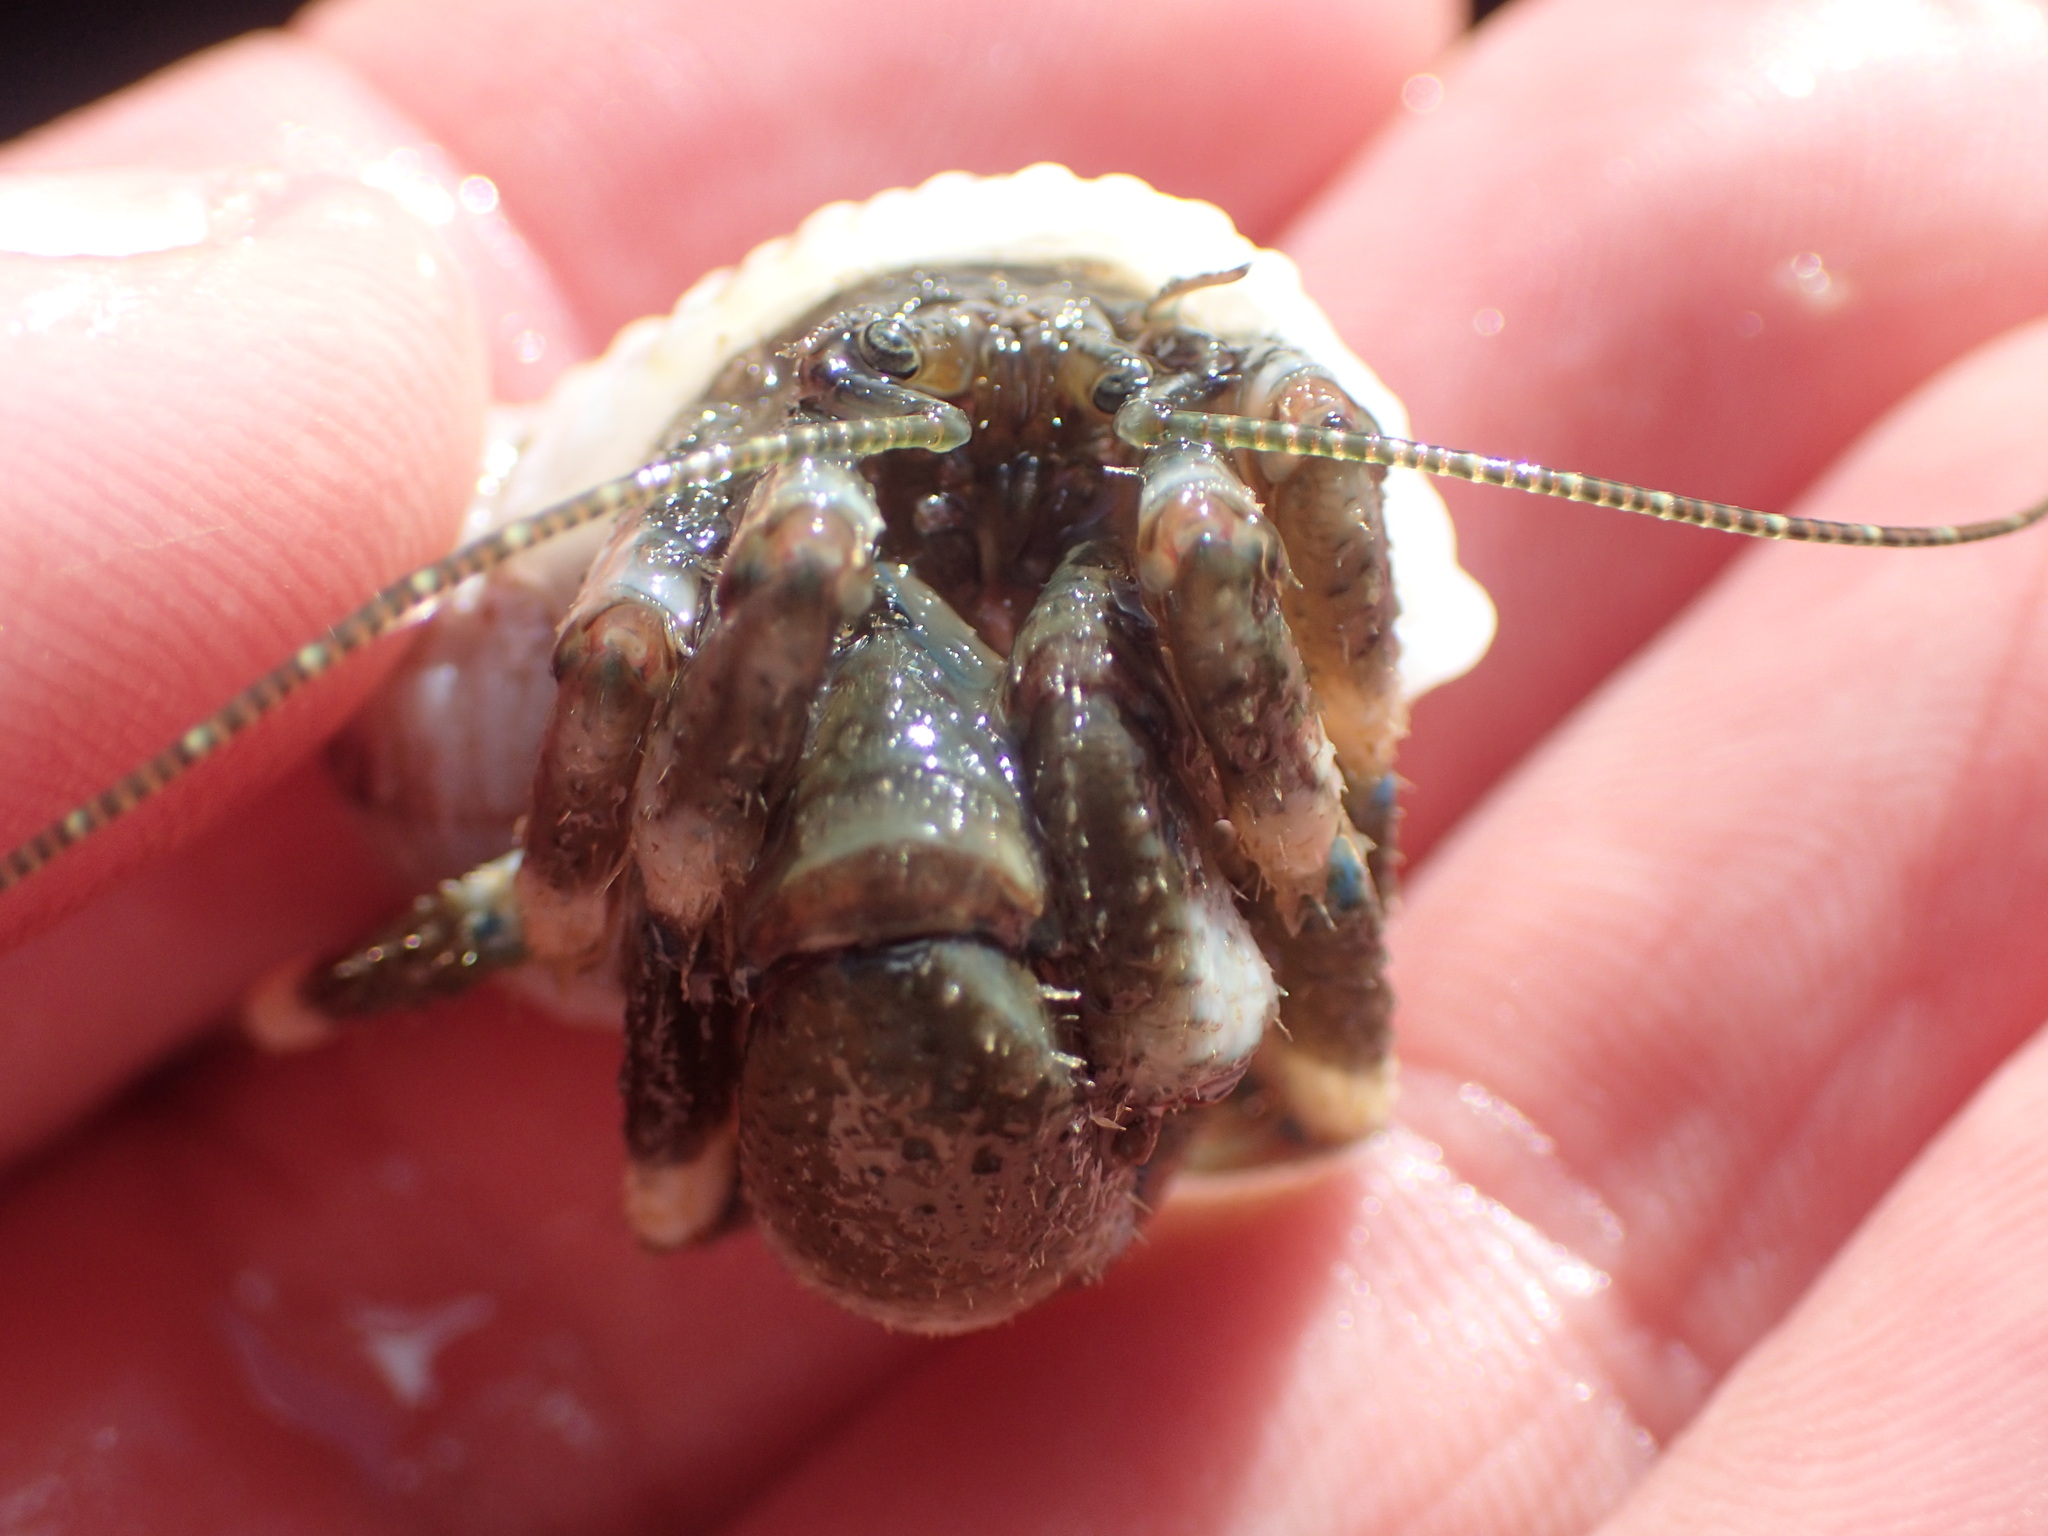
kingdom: Animalia
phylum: Arthropoda
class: Malacostraca
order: Decapoda
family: Paguridae
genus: Pagurus
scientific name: Pagurus hirsutiusculus
